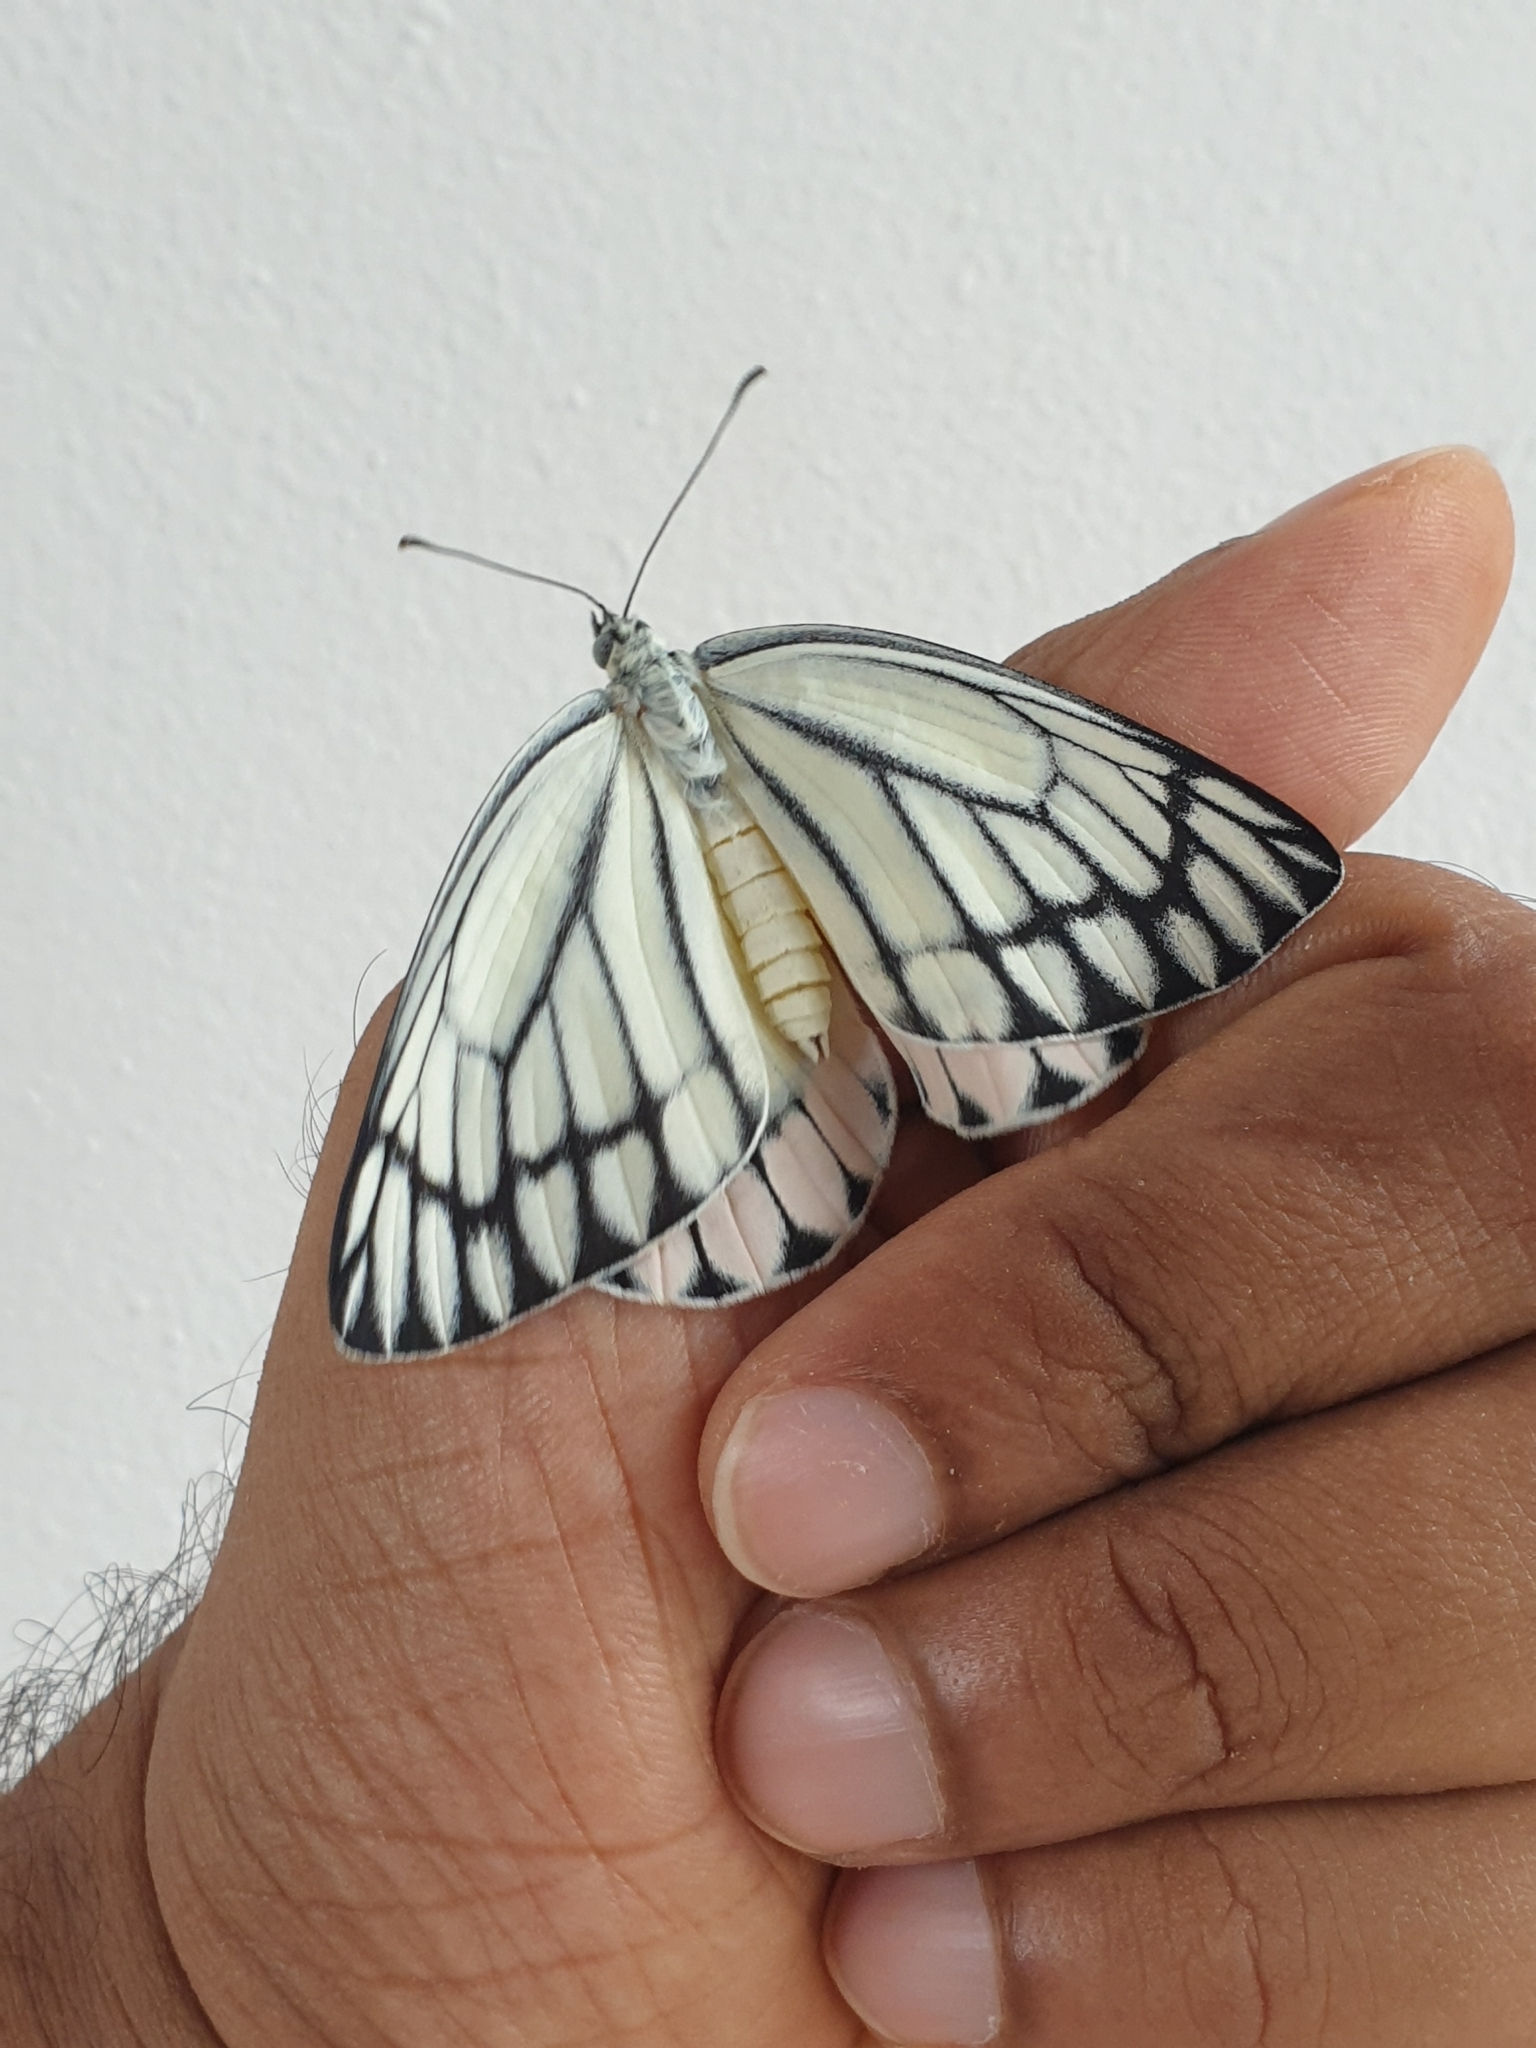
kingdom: Animalia
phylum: Arthropoda
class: Insecta
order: Lepidoptera
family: Pieridae
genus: Delias
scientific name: Delias eucharis
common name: Common jezebel
